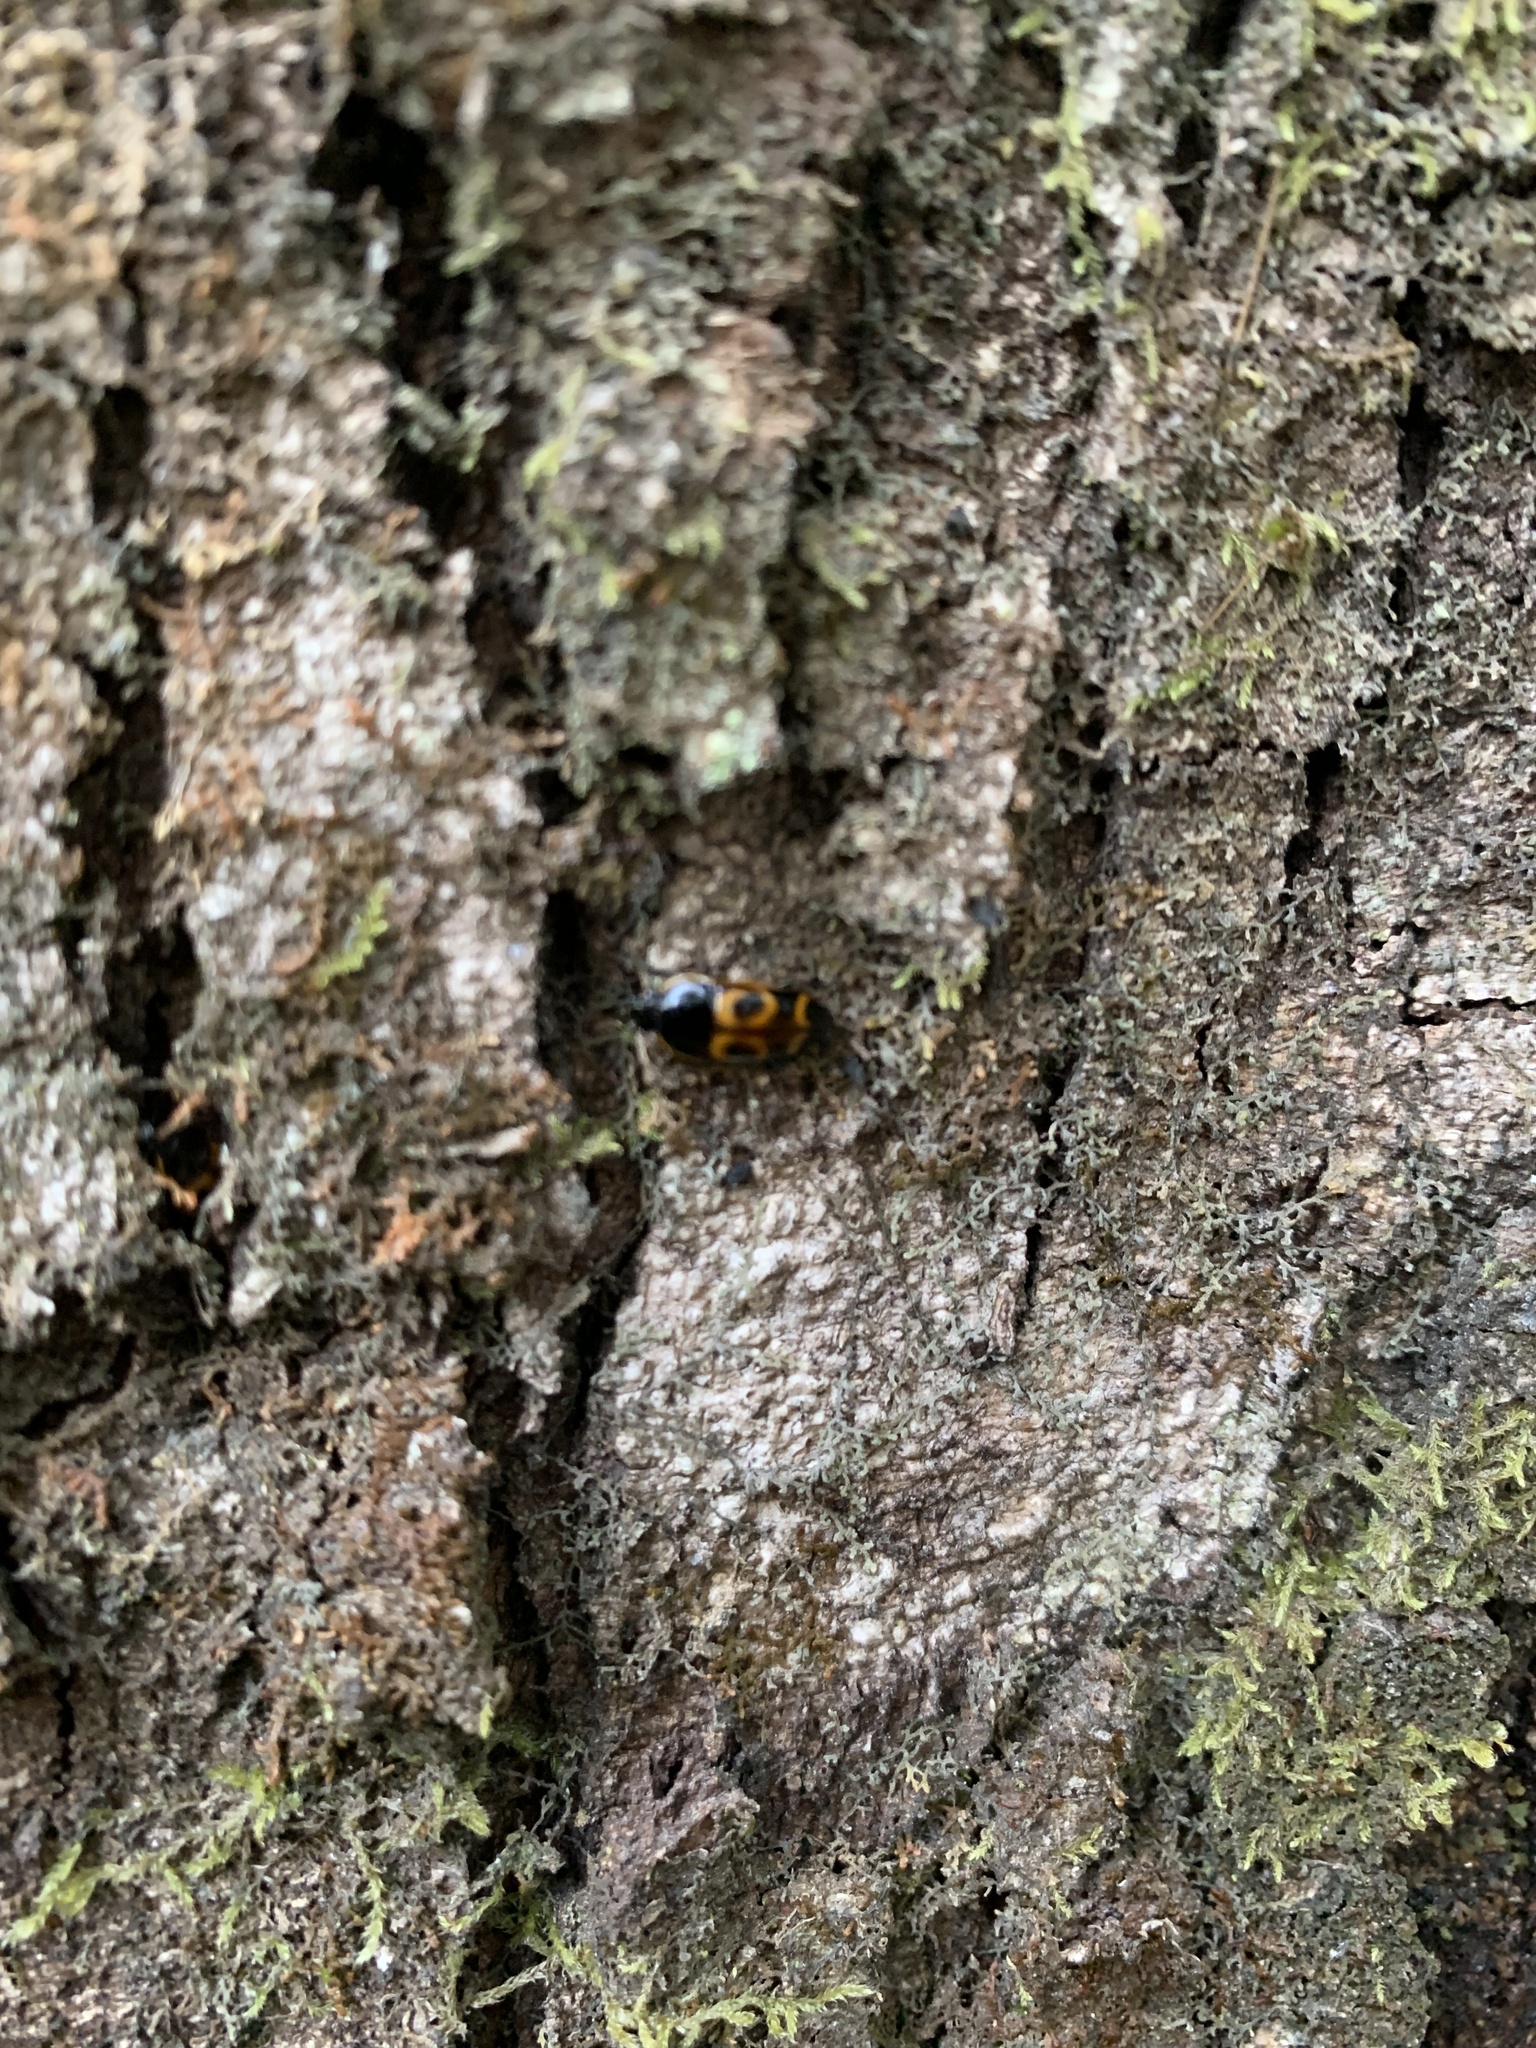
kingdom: Animalia
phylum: Arthropoda
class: Insecta
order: Coleoptera
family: Nitidulidae
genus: Lioschema
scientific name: Lioschema
